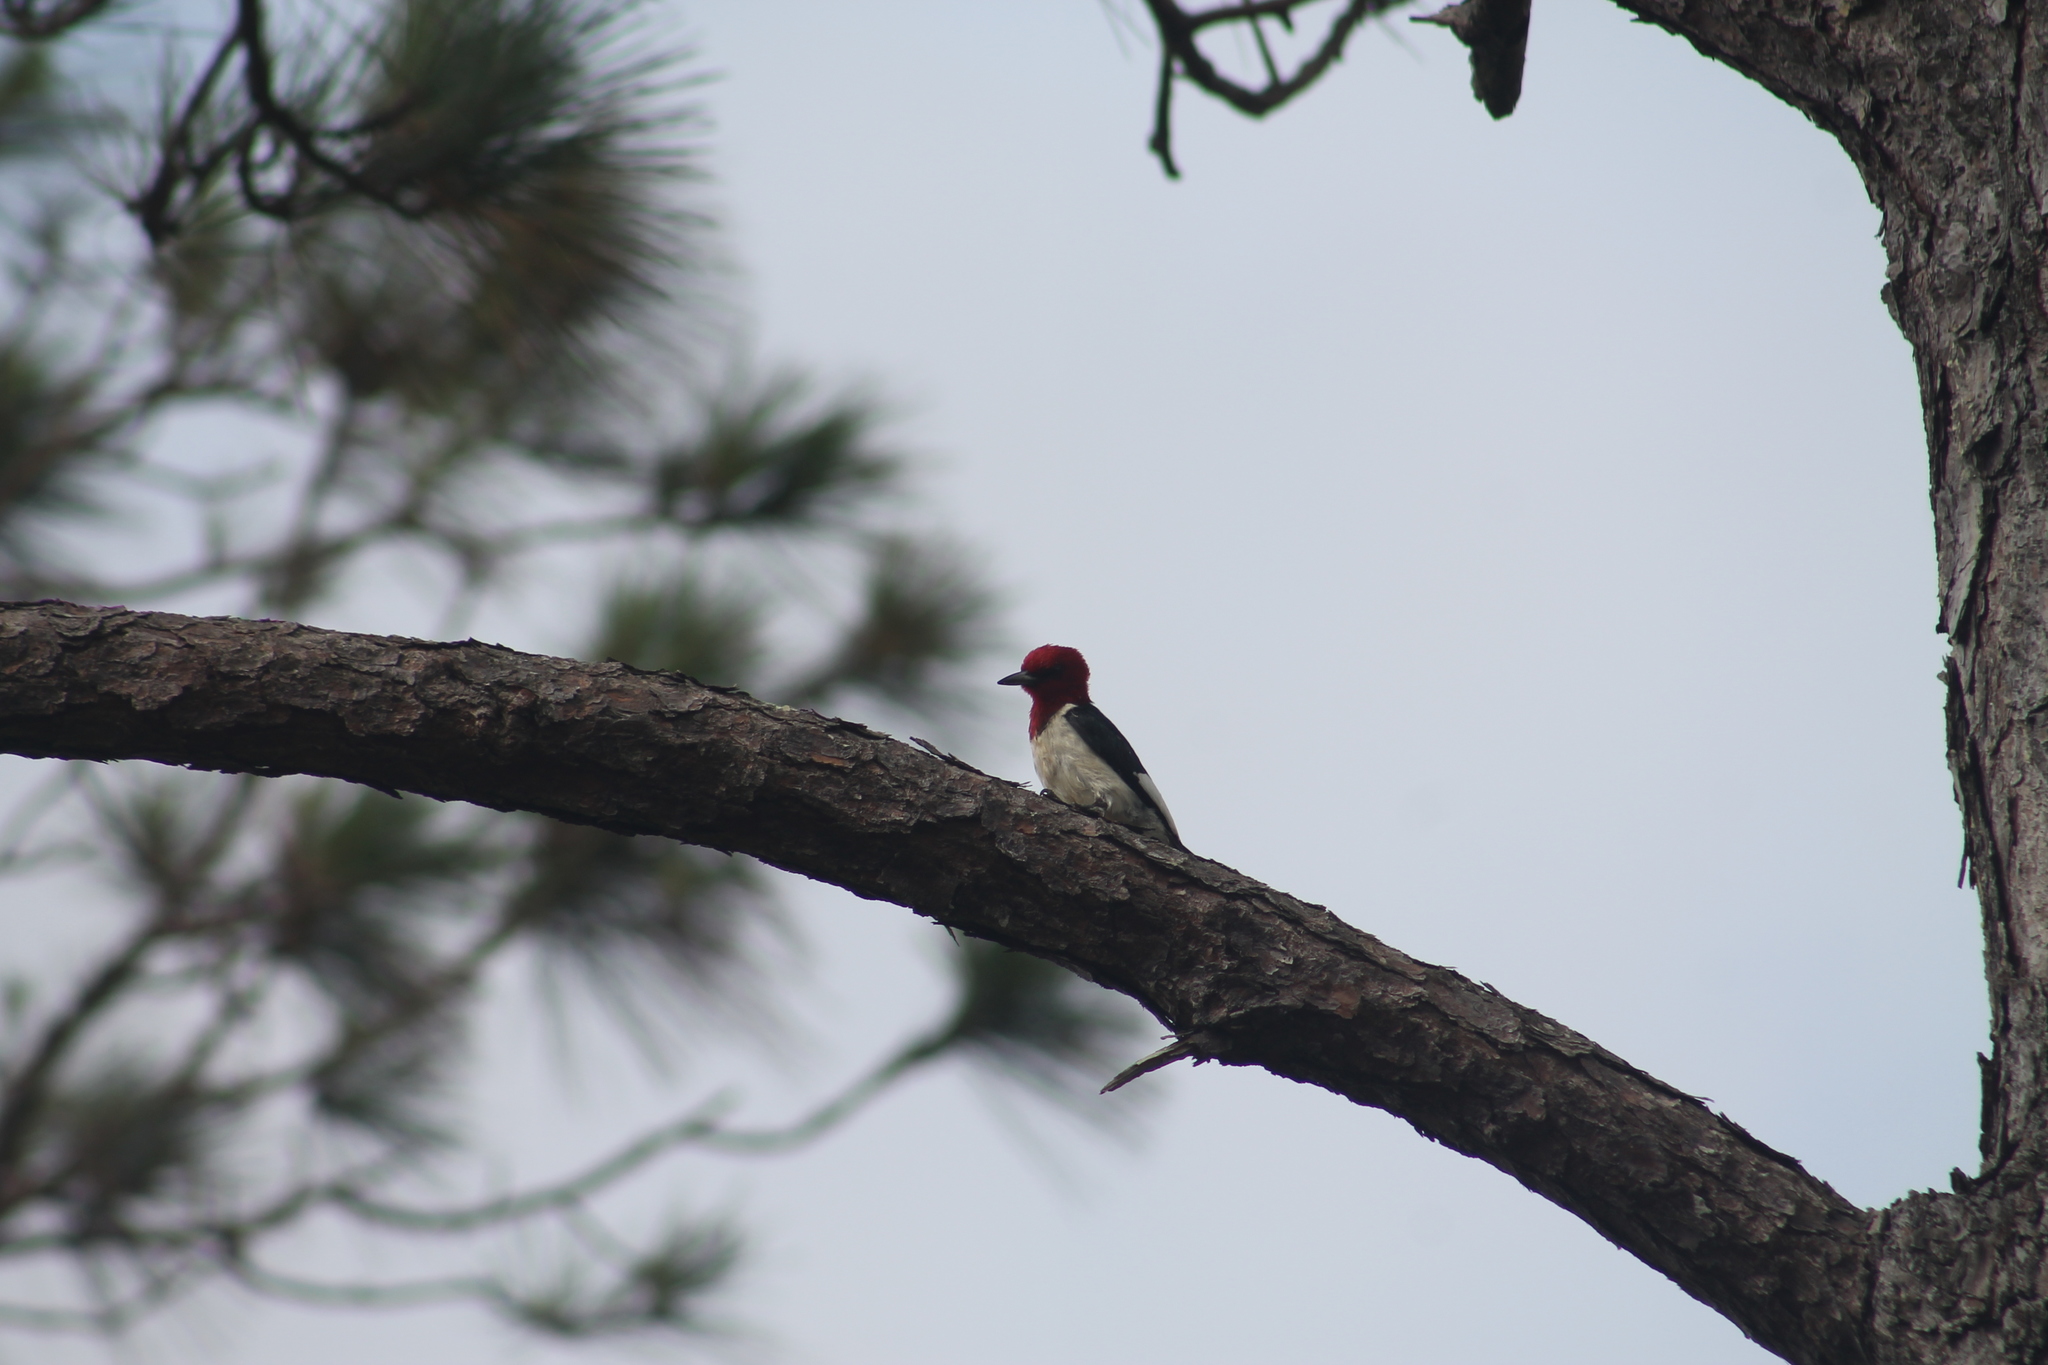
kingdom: Animalia
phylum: Chordata
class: Aves
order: Piciformes
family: Picidae
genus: Melanerpes
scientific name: Melanerpes erythrocephalus
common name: Red-headed woodpecker
